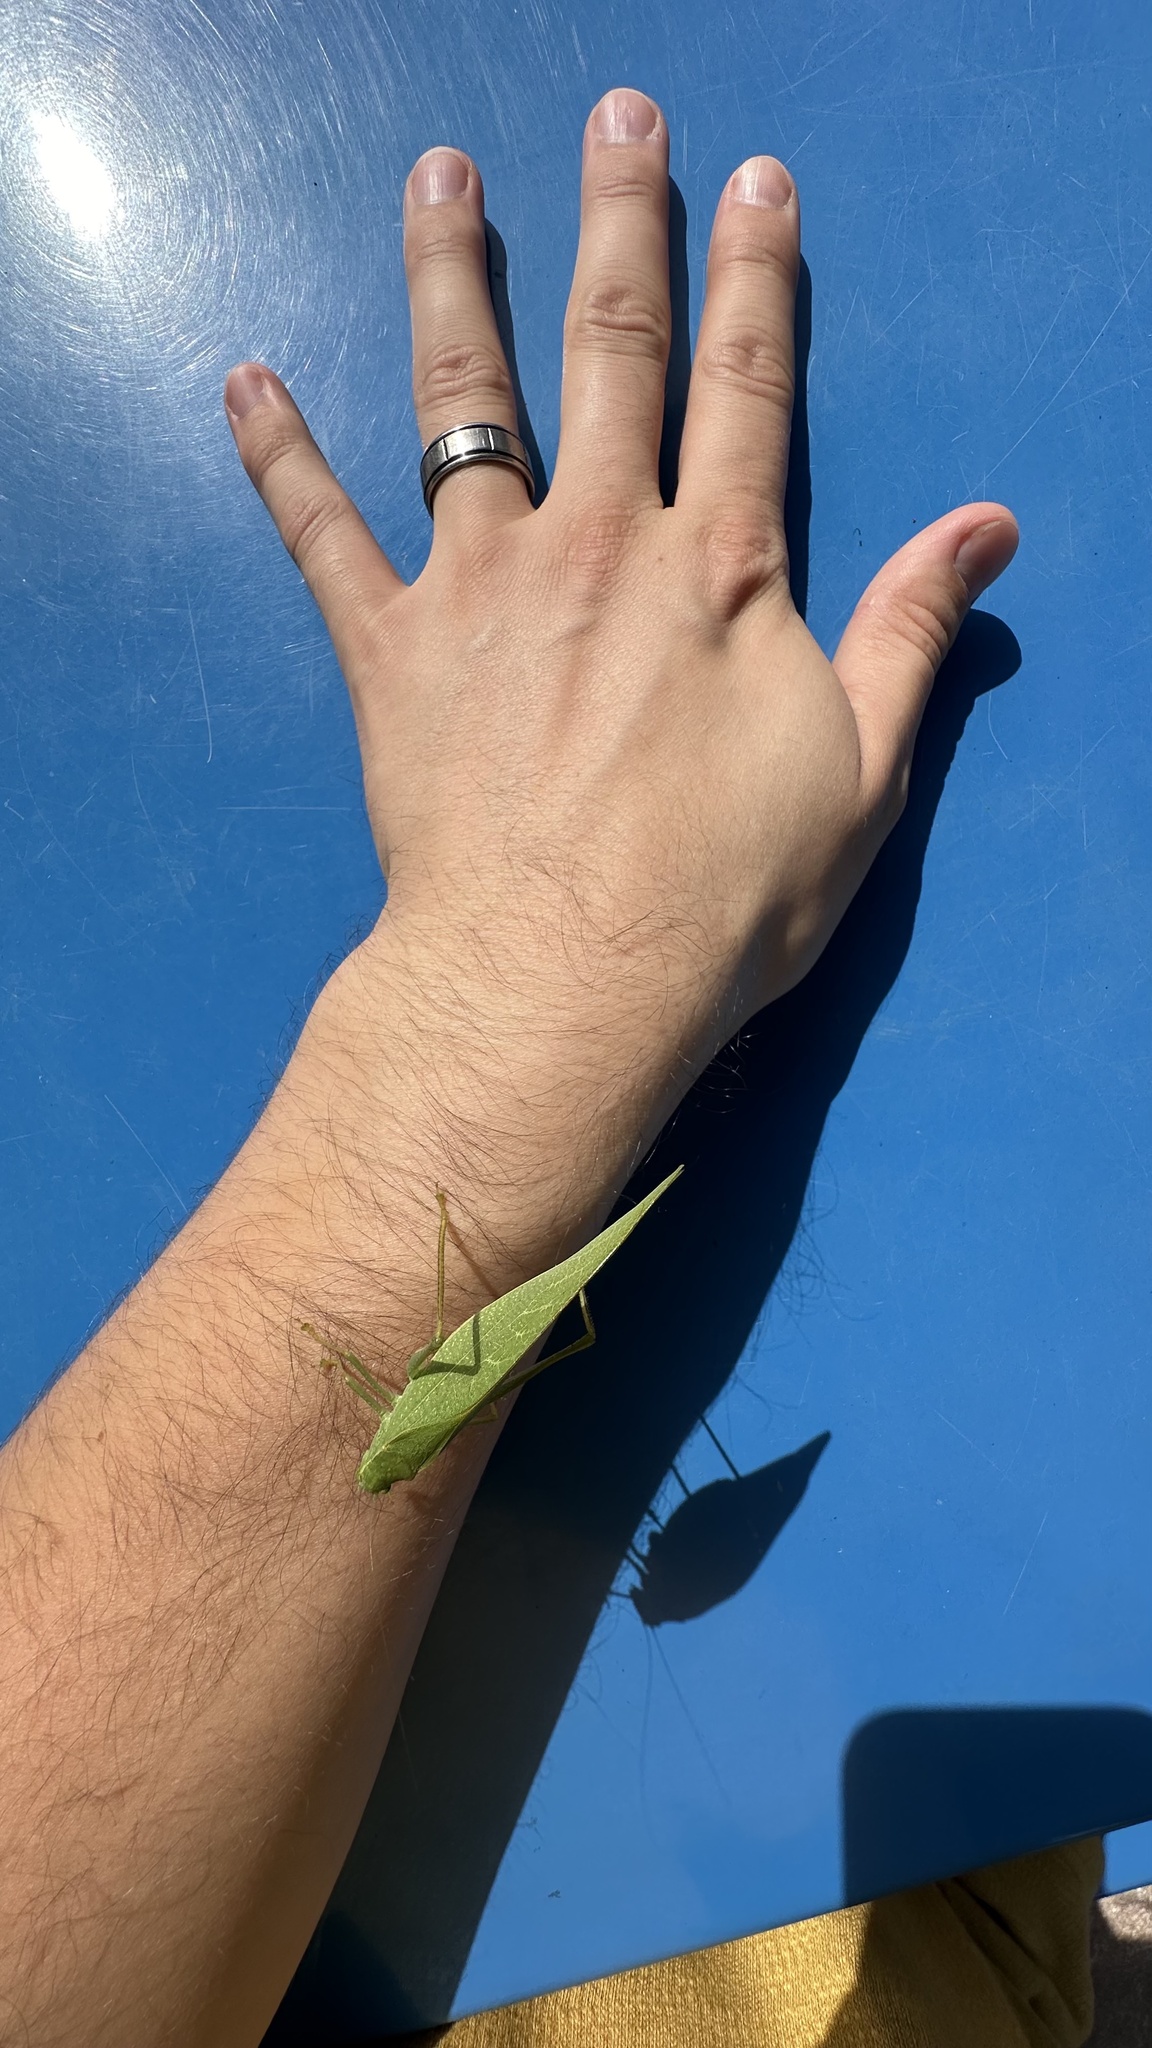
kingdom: Animalia
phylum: Arthropoda
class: Insecta
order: Orthoptera
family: Tettigoniidae
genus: Microcentrum
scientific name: Microcentrum rhombifolium
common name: Broad-winged katydid
